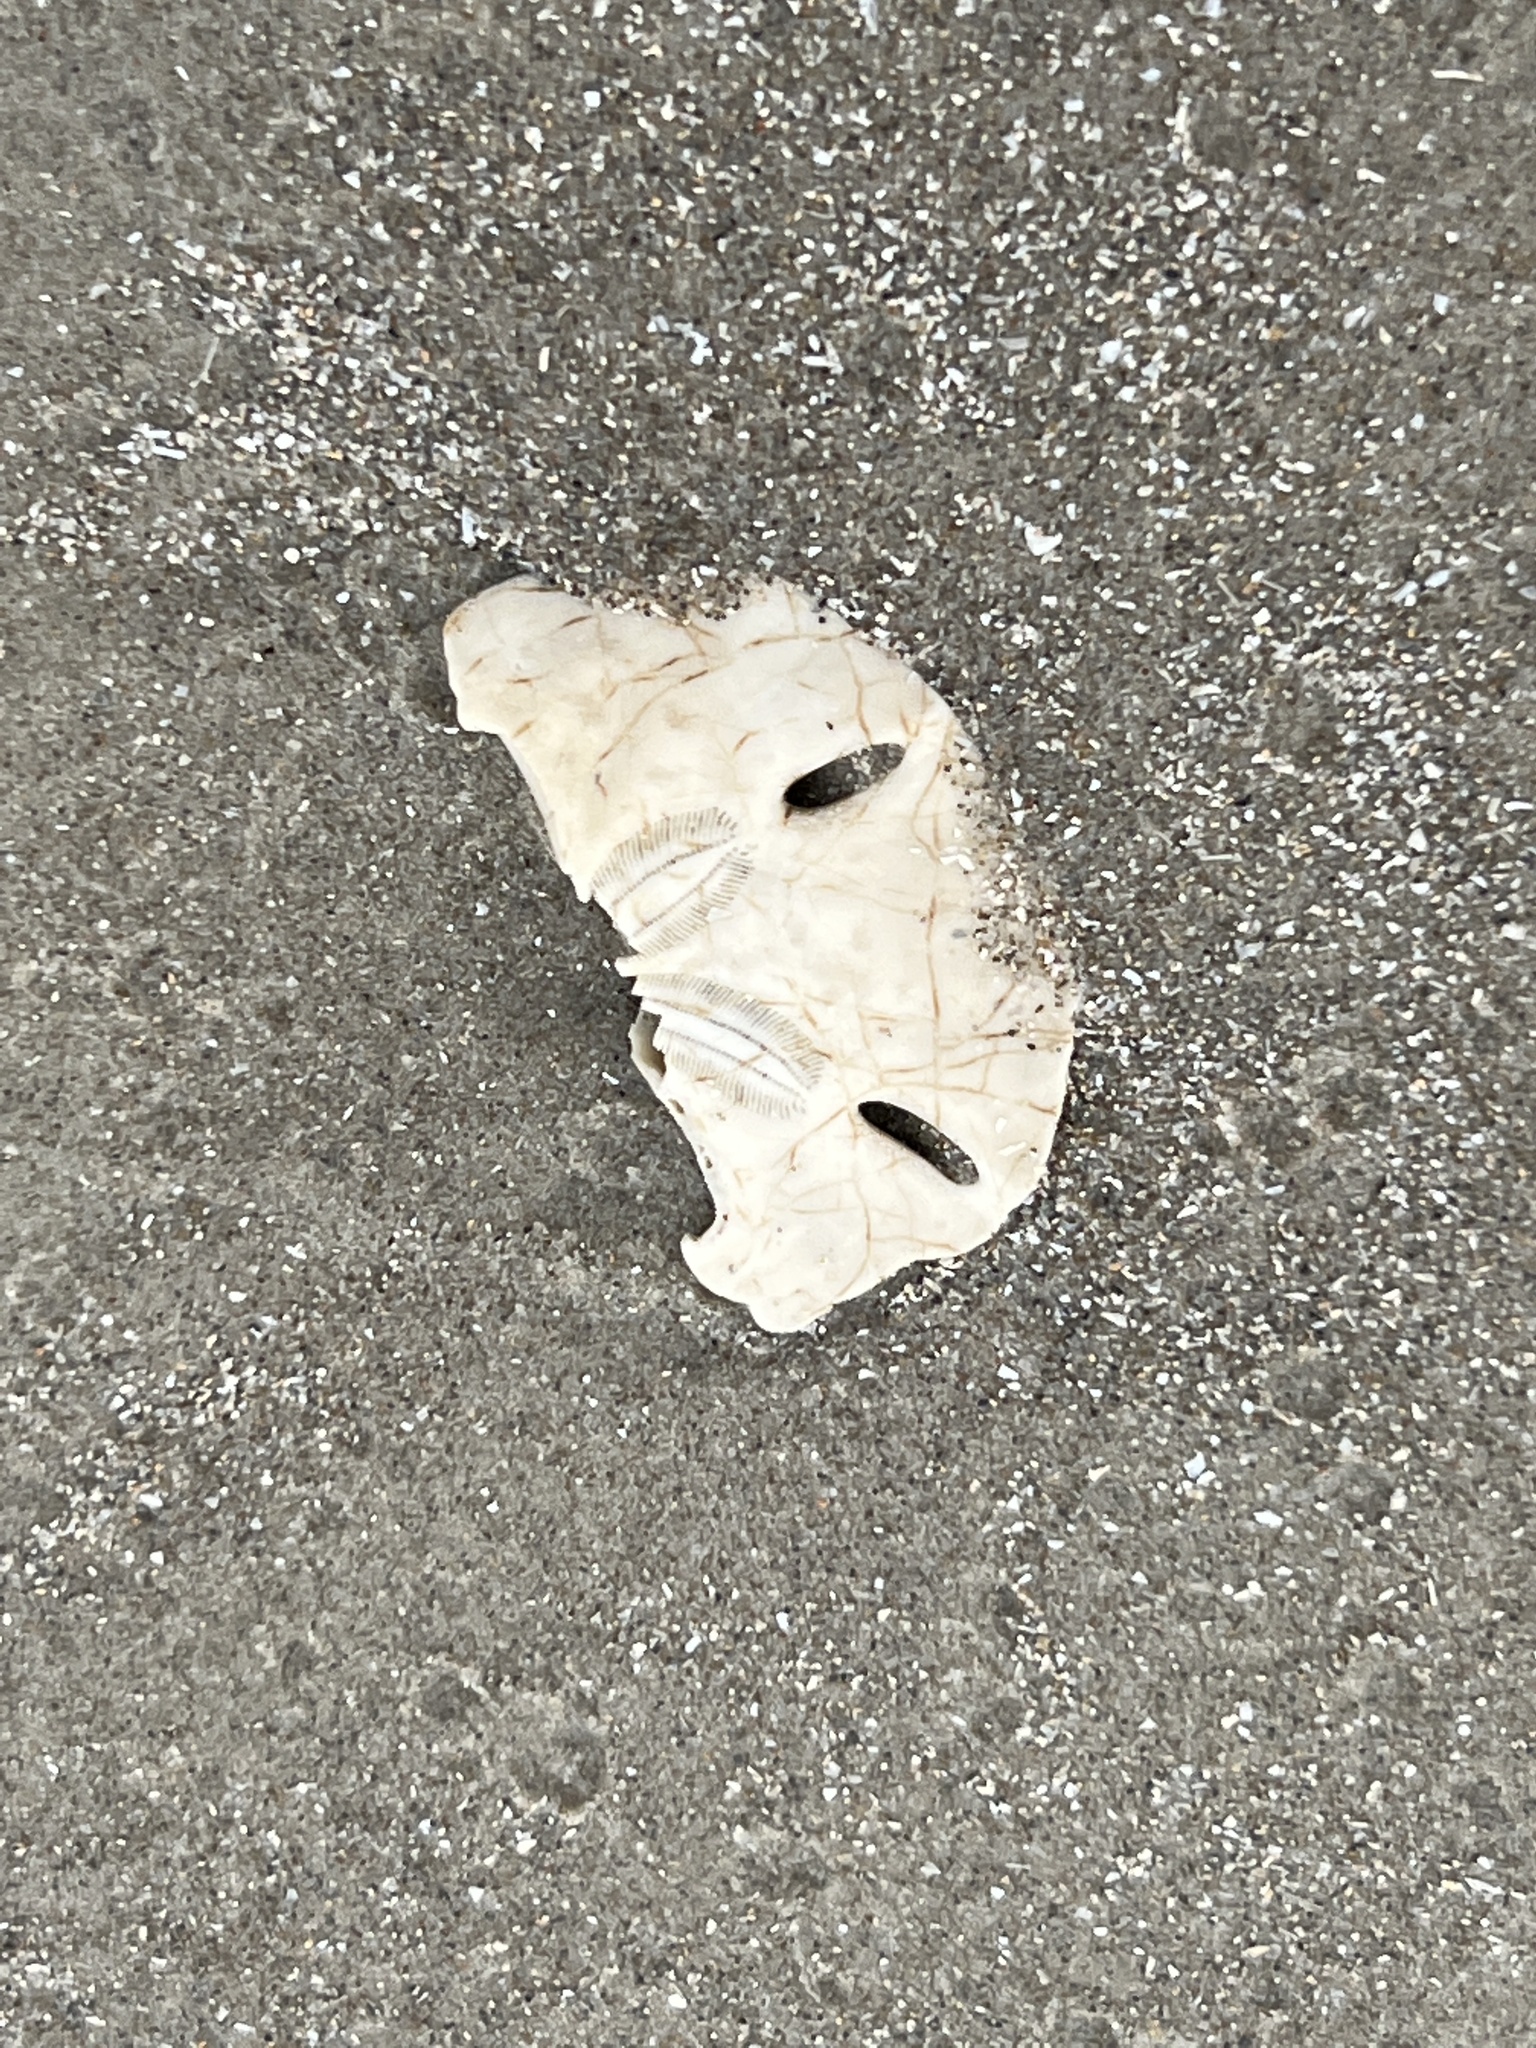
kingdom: Animalia
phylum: Echinodermata
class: Echinoidea
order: Echinolampadacea
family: Mellitidae
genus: Mellita
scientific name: Mellita quinquiesperforata
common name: Sand dollar
